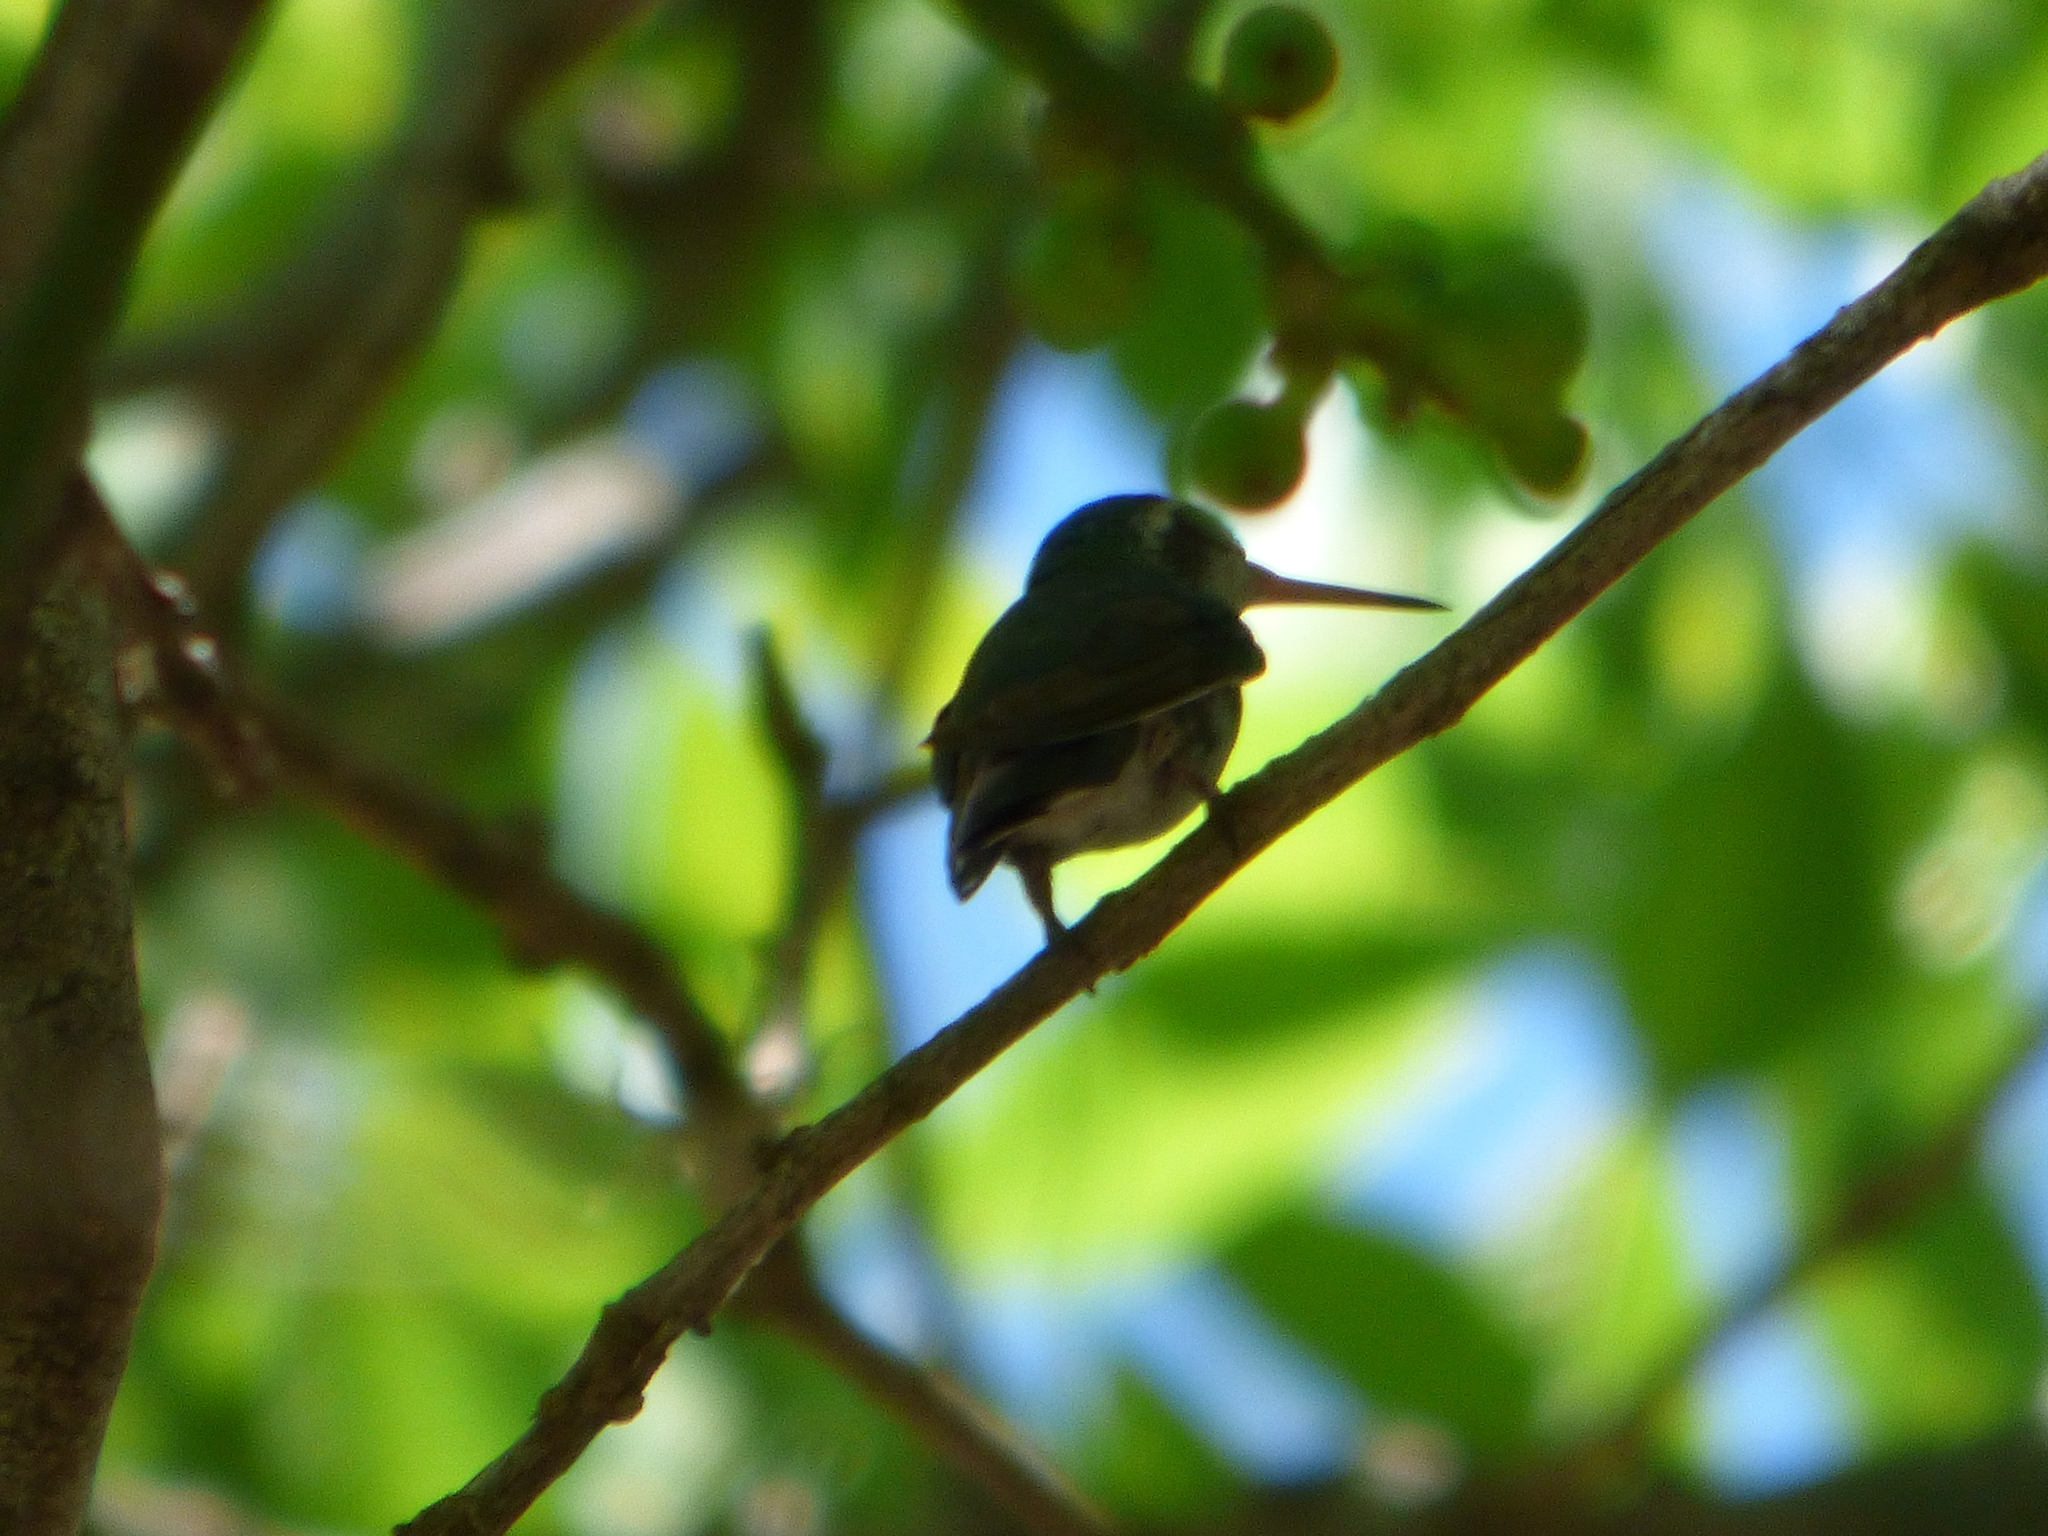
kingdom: Animalia
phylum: Chordata
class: Aves
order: Apodiformes
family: Trochilidae
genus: Chlorostilbon
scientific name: Chlorostilbon lucidus
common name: Glittering-bellied emerald
